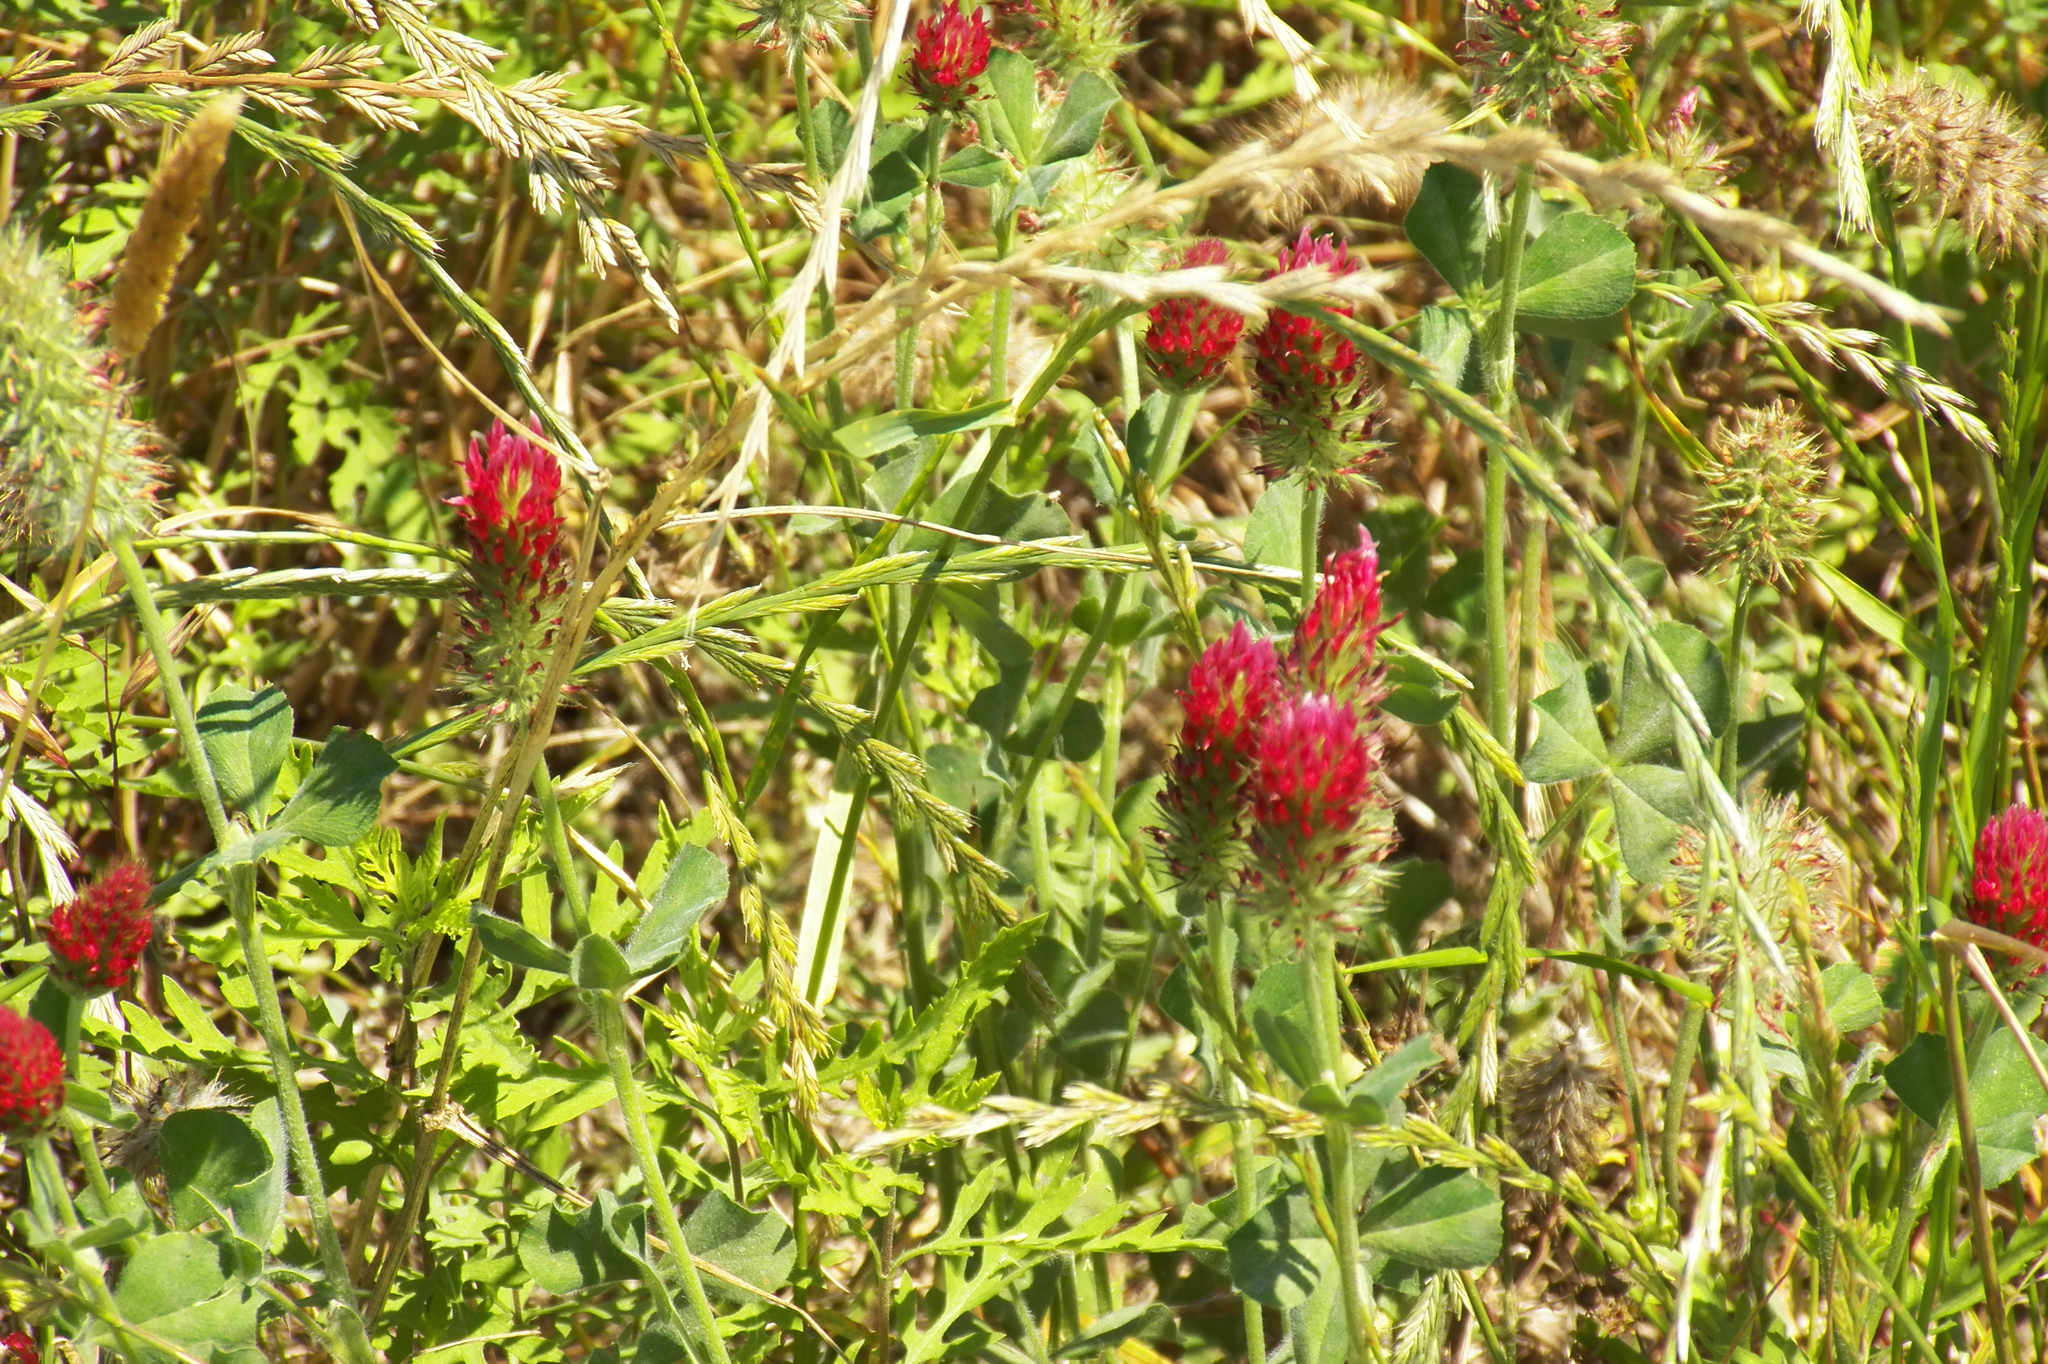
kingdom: Plantae
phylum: Tracheophyta
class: Magnoliopsida
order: Fabales
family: Fabaceae
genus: Trifolium
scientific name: Trifolium incarnatum
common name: Crimson clover
